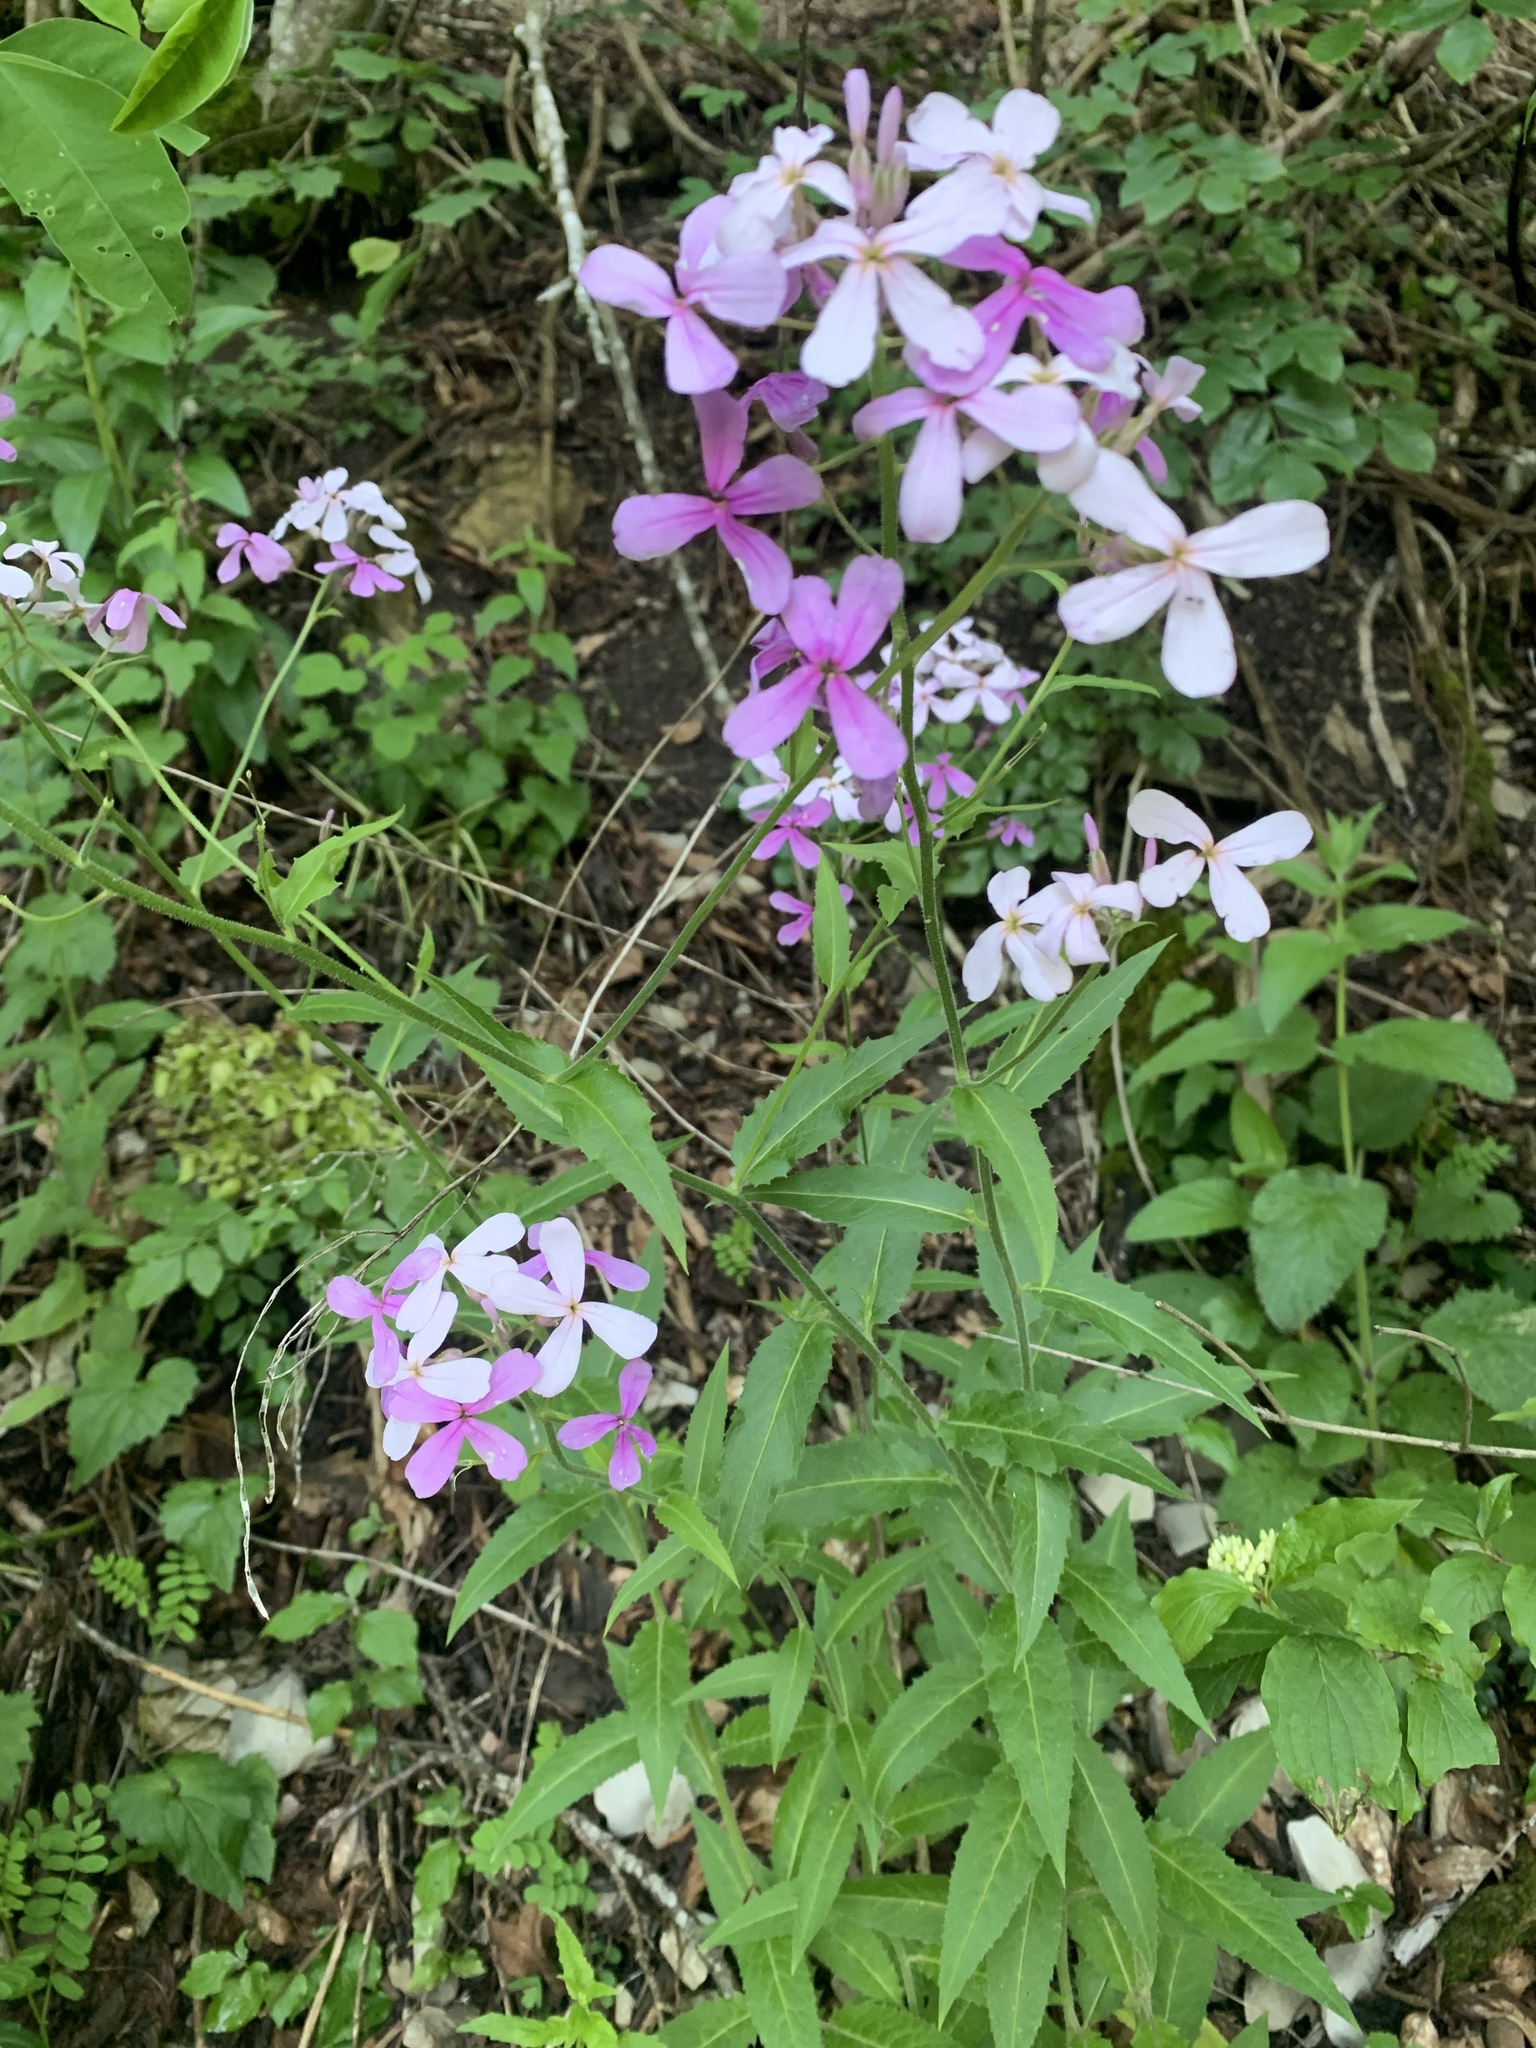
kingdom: Plantae
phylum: Tracheophyta
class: Magnoliopsida
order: Brassicales
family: Brassicaceae
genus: Hesperis
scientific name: Hesperis matronalis
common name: Dame's-violet
